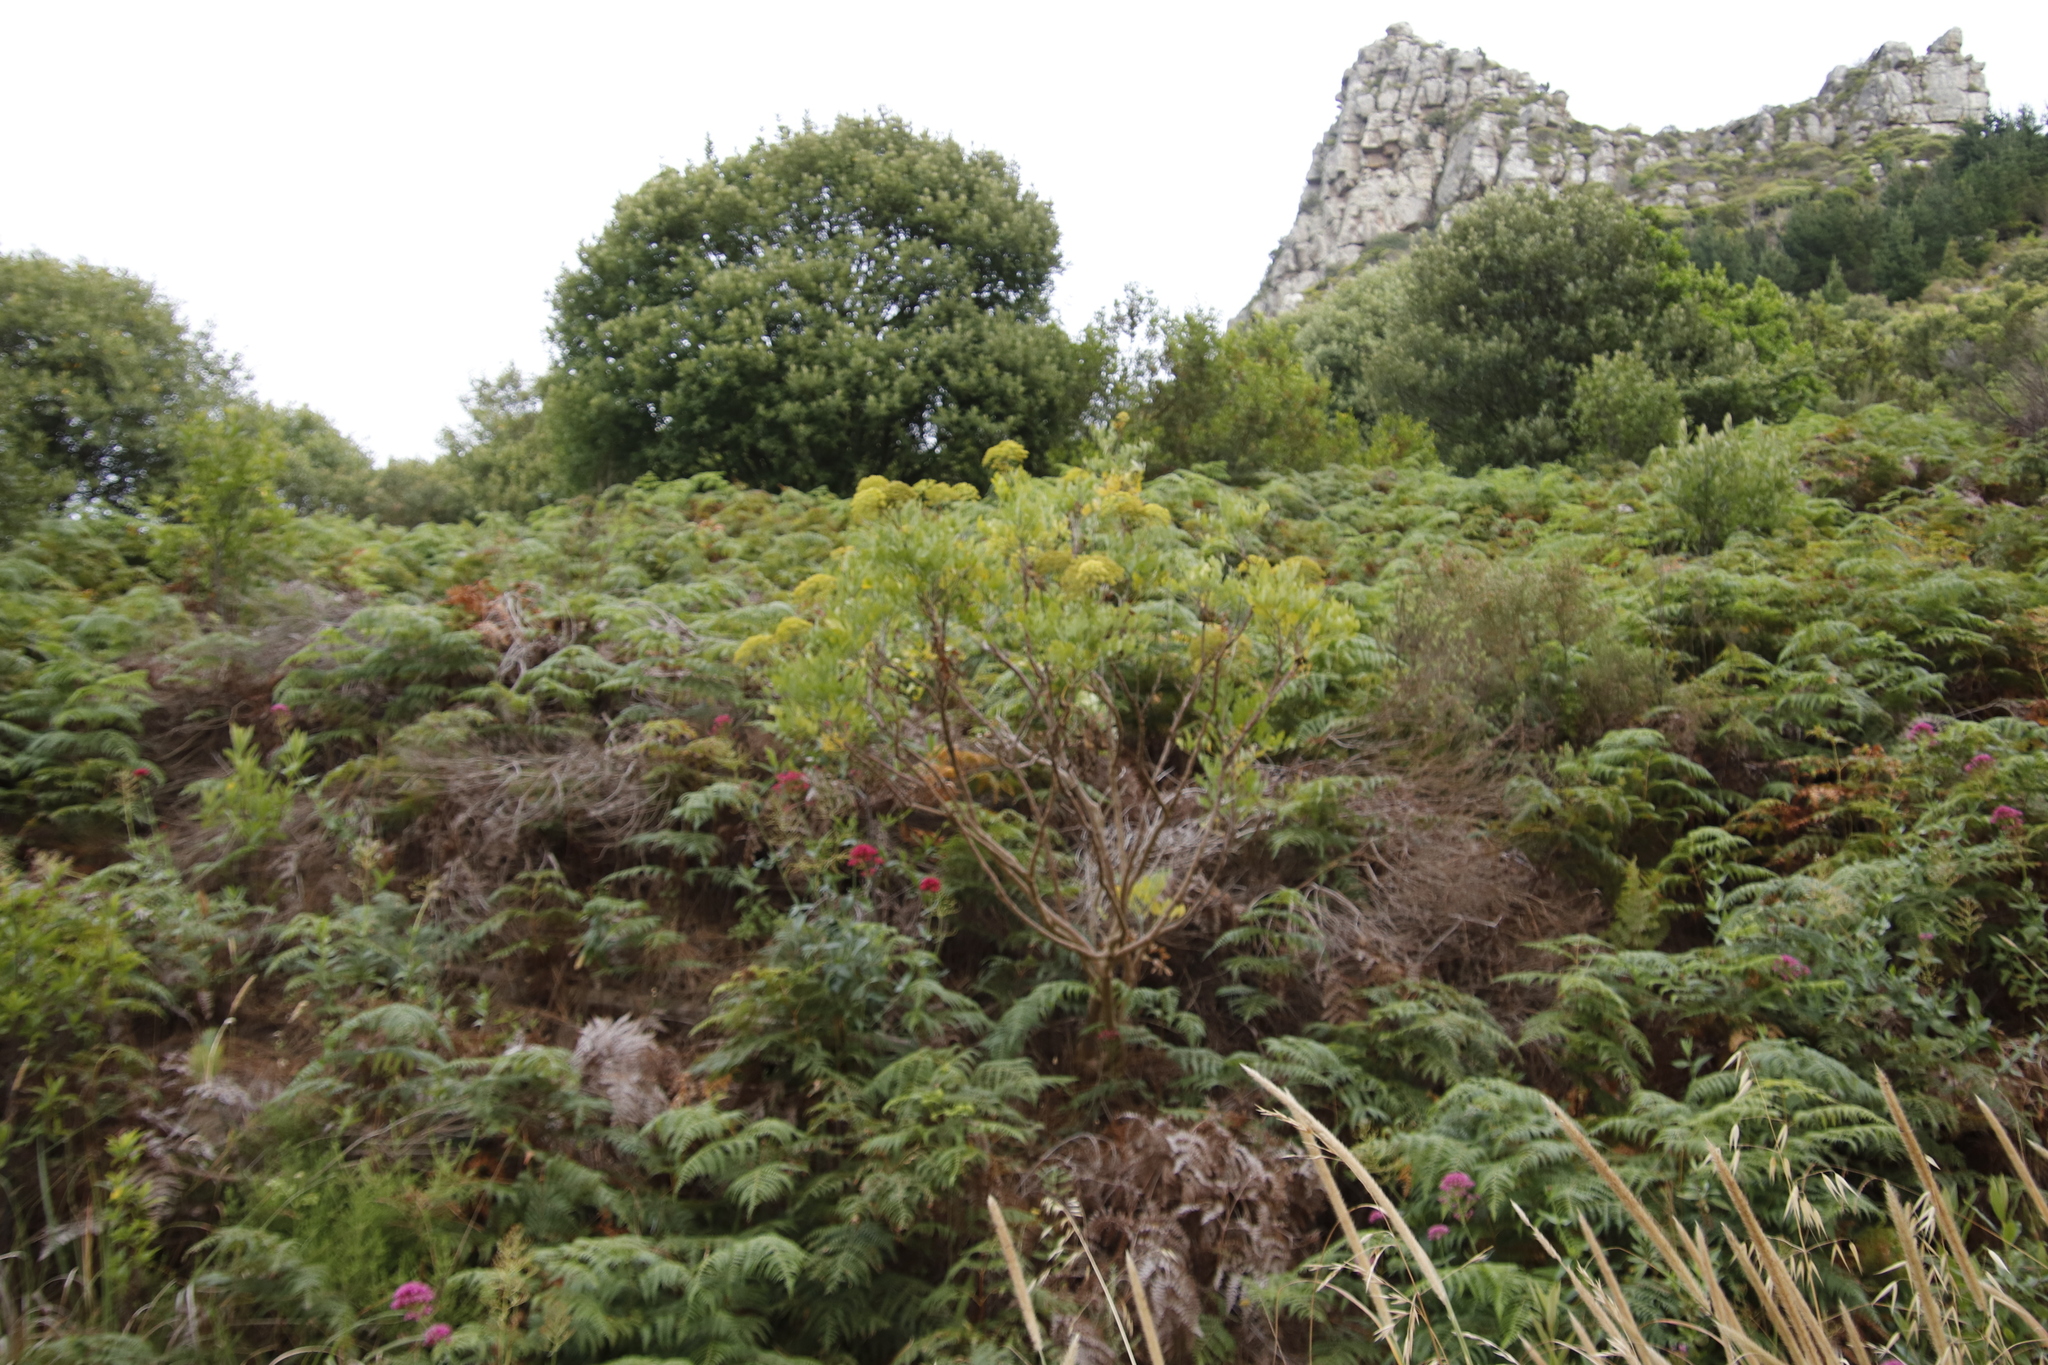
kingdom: Plantae
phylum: Tracheophyta
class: Magnoliopsida
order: Apiales
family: Apiaceae
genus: Notobubon
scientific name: Notobubon galbanum
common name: Blisterbush
